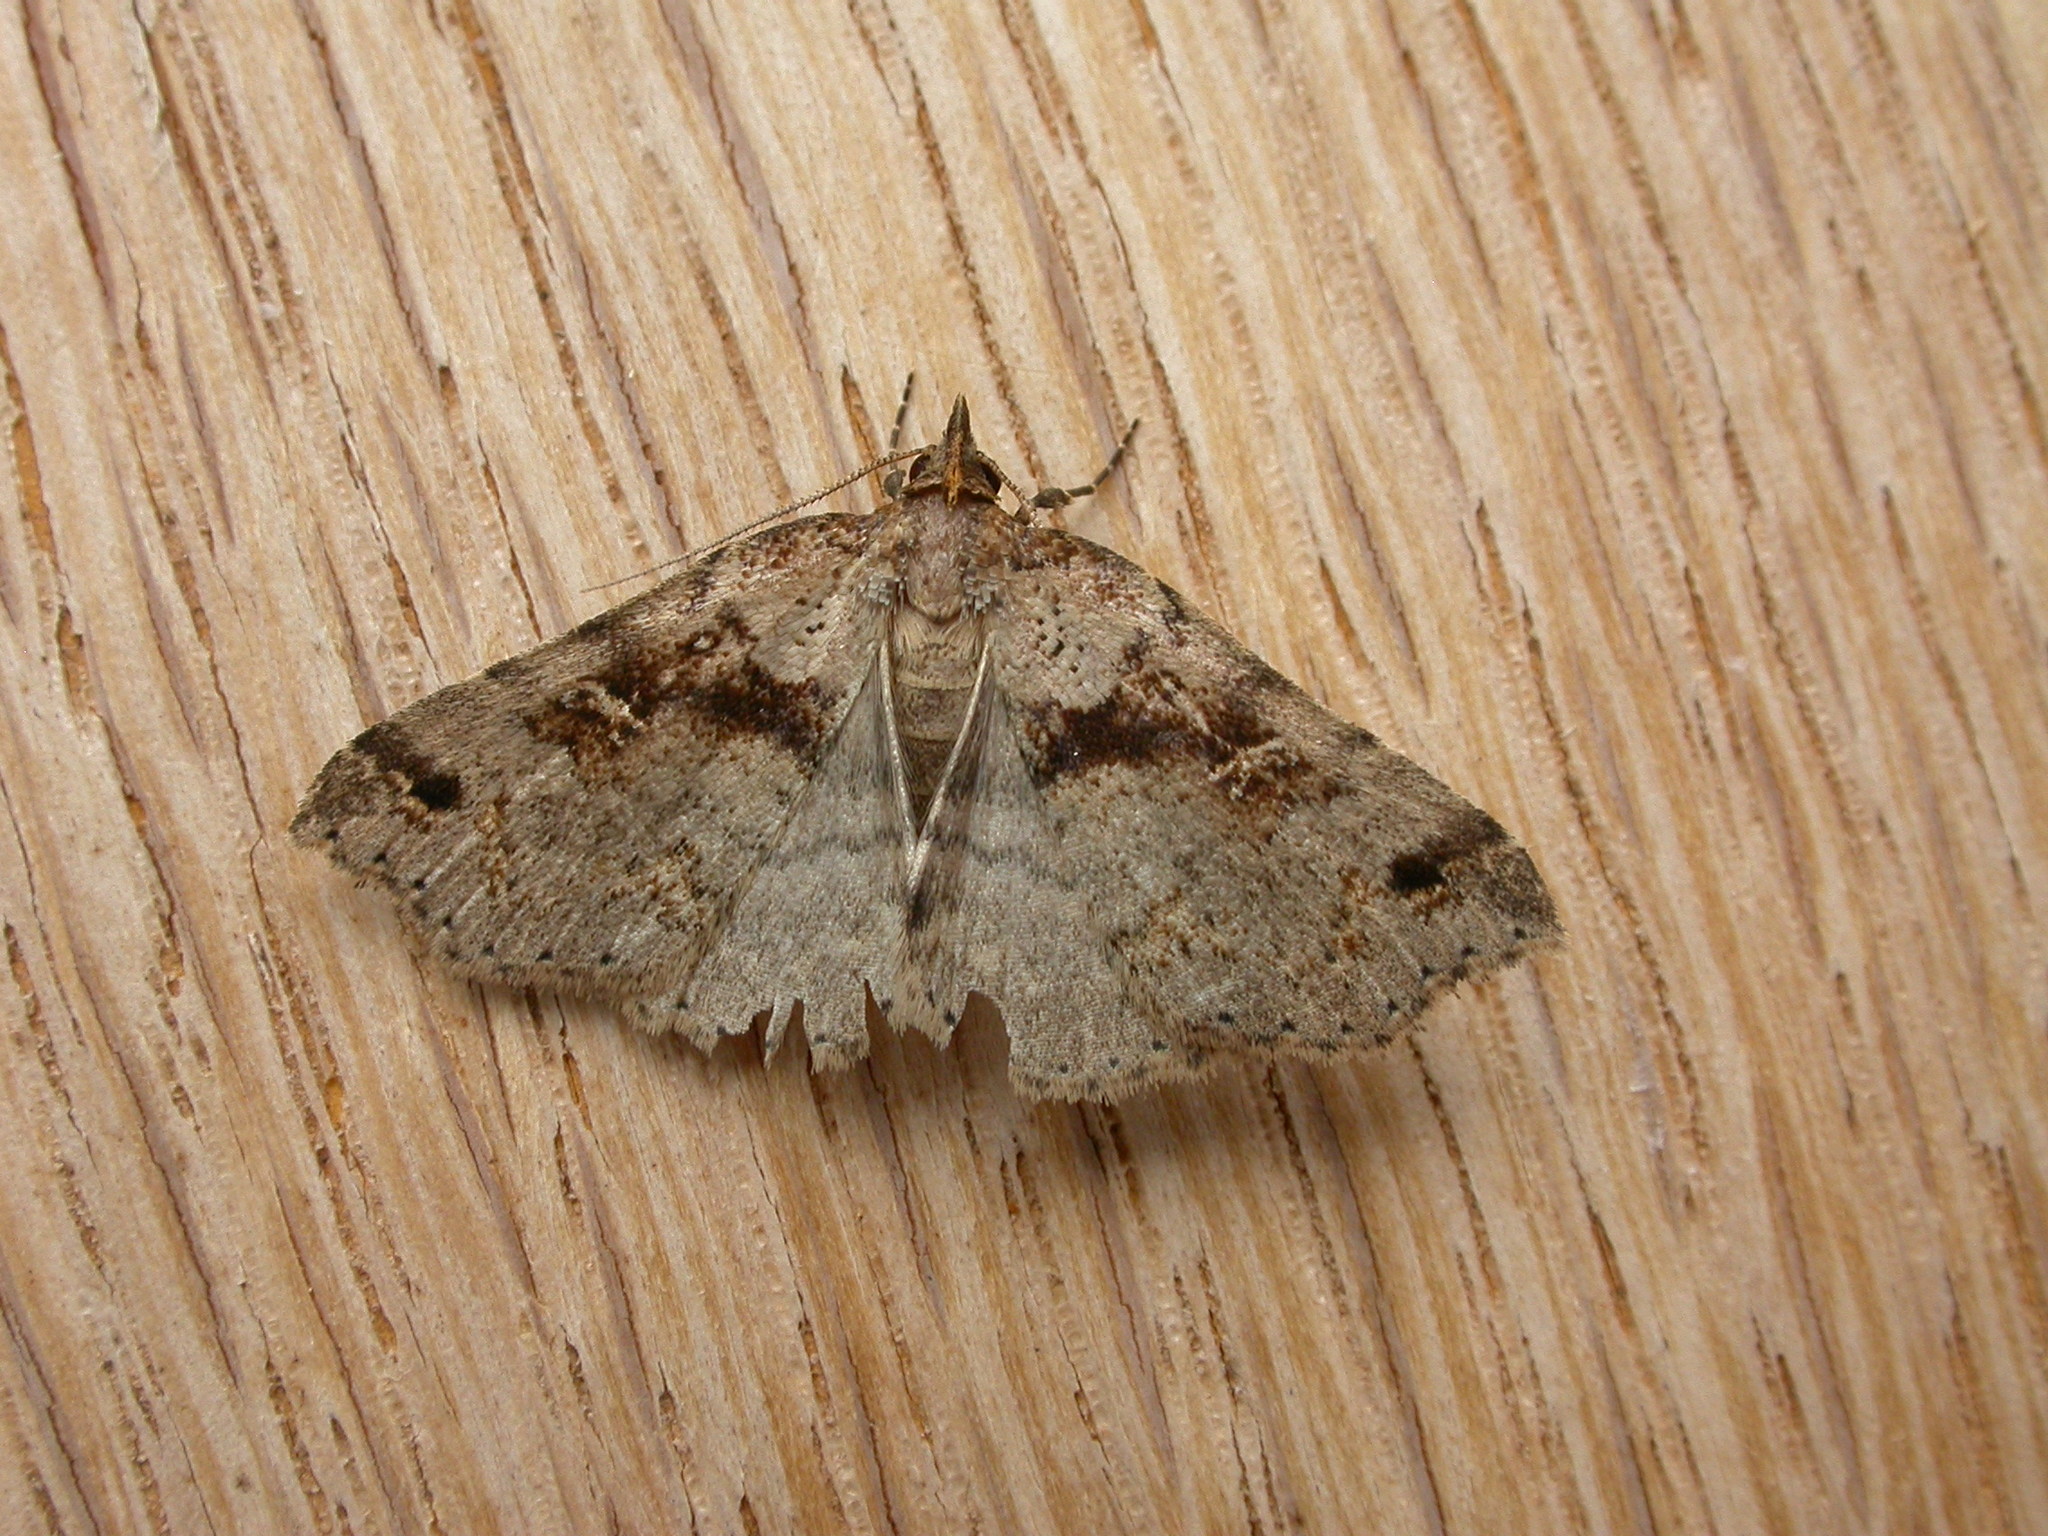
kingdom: Animalia
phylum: Arthropoda
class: Insecta
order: Lepidoptera
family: Erebidae
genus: Lithilaria
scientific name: Lithilaria ossicolor
